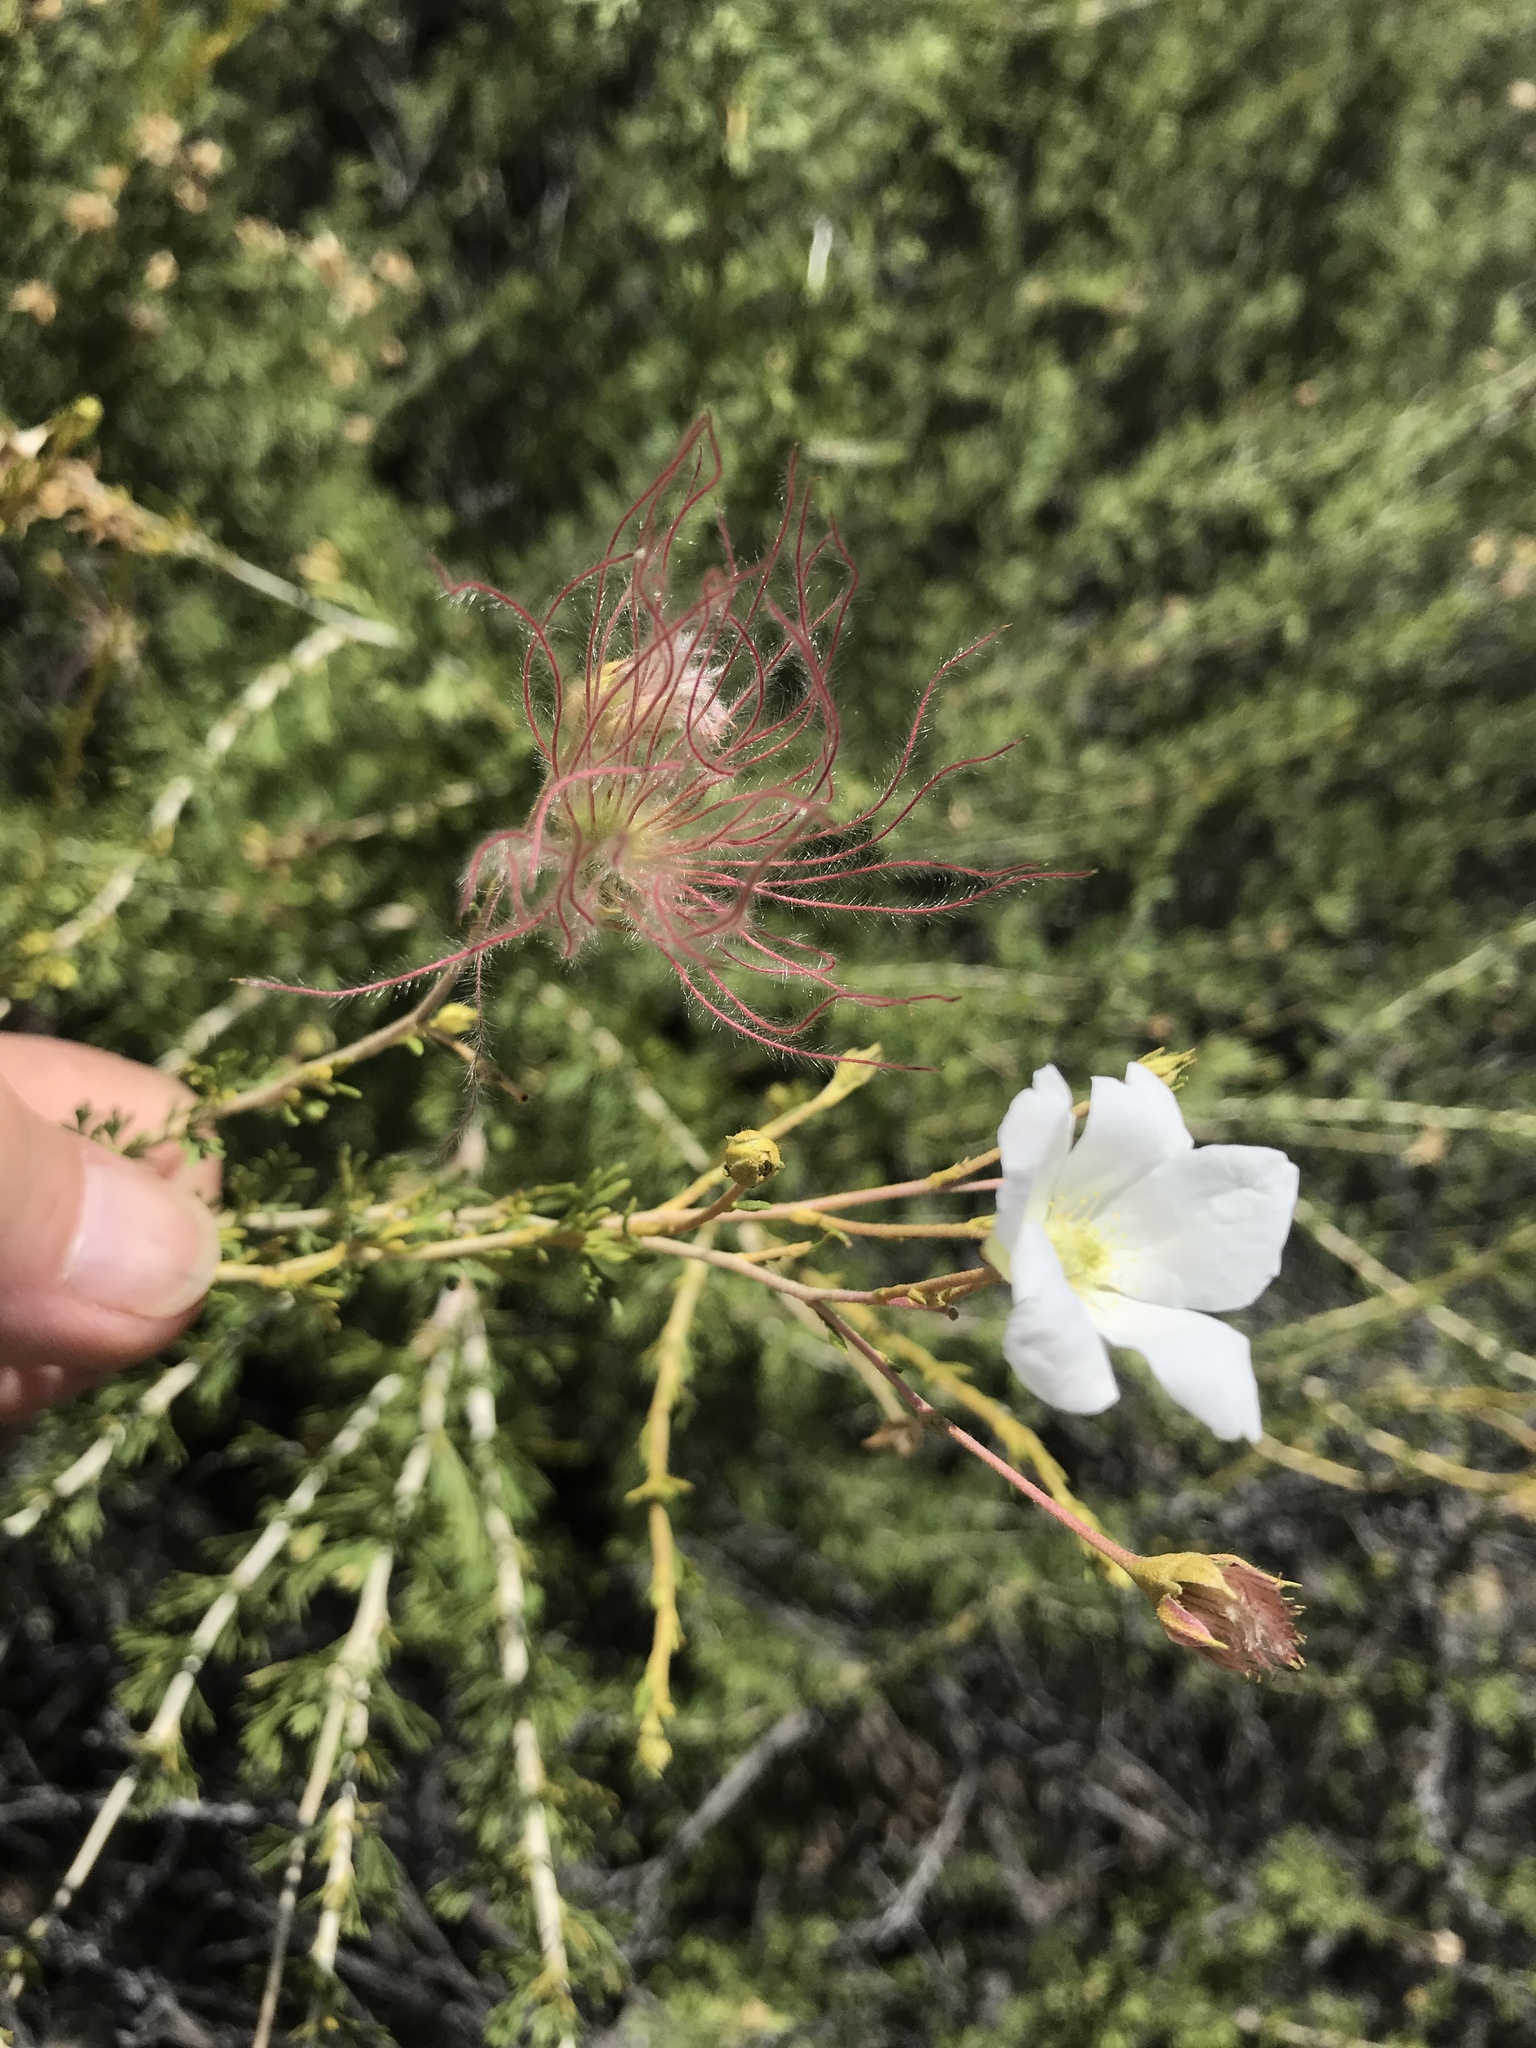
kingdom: Plantae
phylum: Tracheophyta
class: Magnoliopsida
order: Rosales
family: Rosaceae
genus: Fallugia
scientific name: Fallugia paradoxa
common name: Apache-plume
